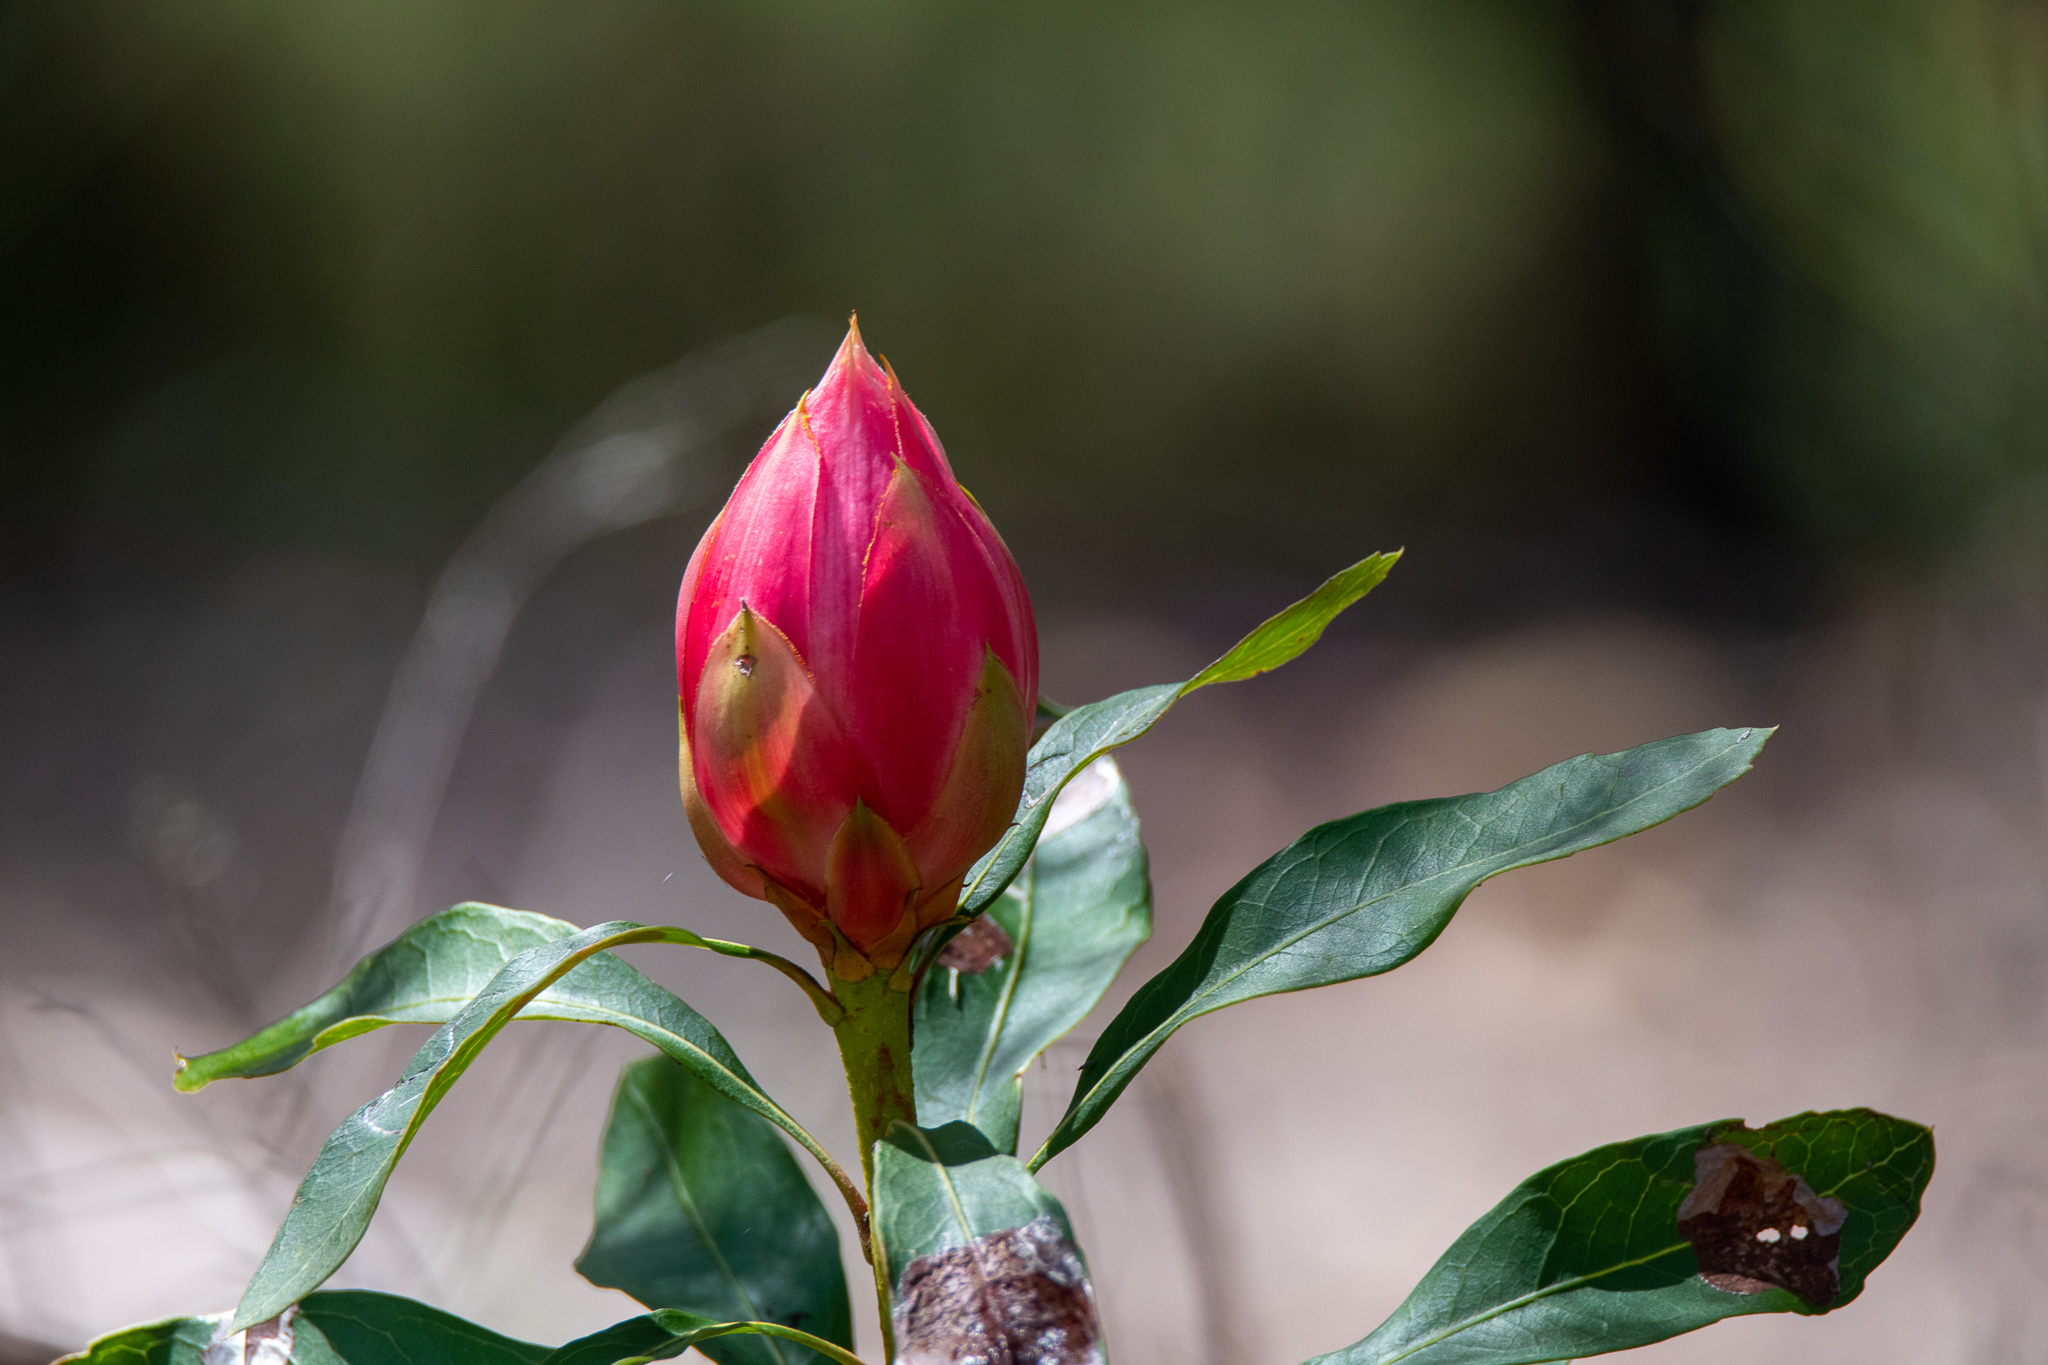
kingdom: Plantae
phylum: Tracheophyta
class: Magnoliopsida
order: Proteales
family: Proteaceae
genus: Telopea
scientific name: Telopea speciosissima
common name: New south wales waratah
